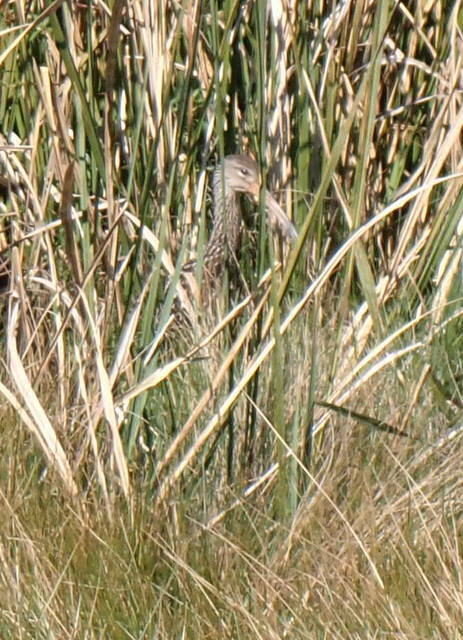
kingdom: Animalia
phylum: Chordata
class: Aves
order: Gruiformes
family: Aramidae
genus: Aramus
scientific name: Aramus guarauna
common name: Limpkin
